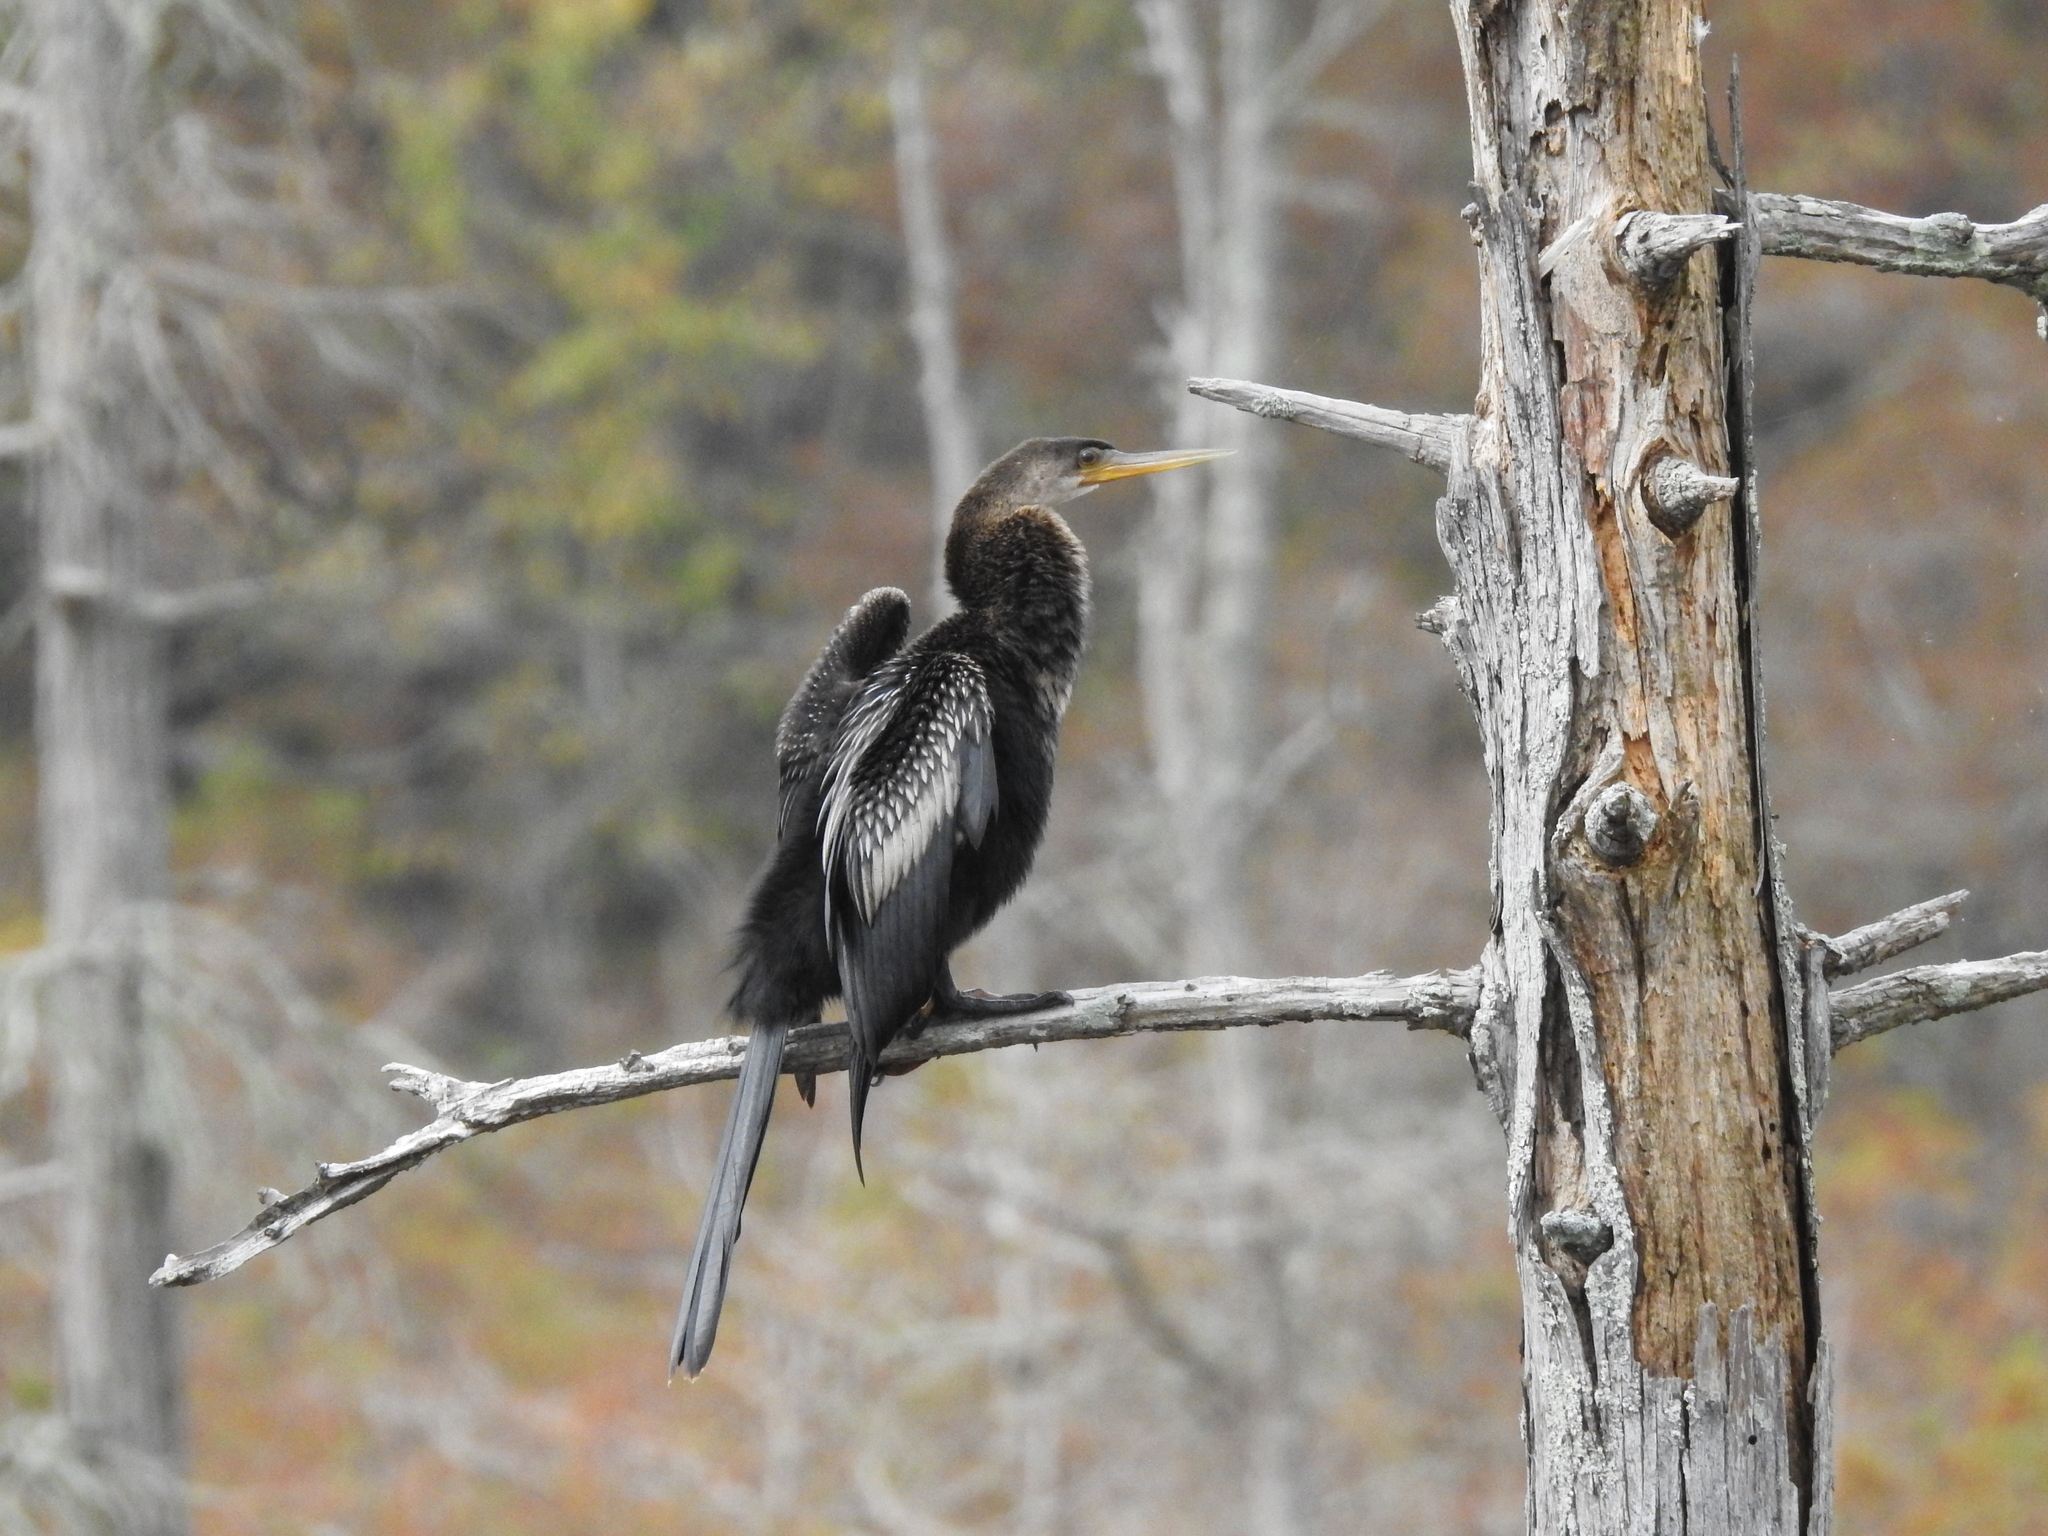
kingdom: Animalia
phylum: Chordata
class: Aves
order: Suliformes
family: Anhingidae
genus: Anhinga
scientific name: Anhinga anhinga
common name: Anhinga
